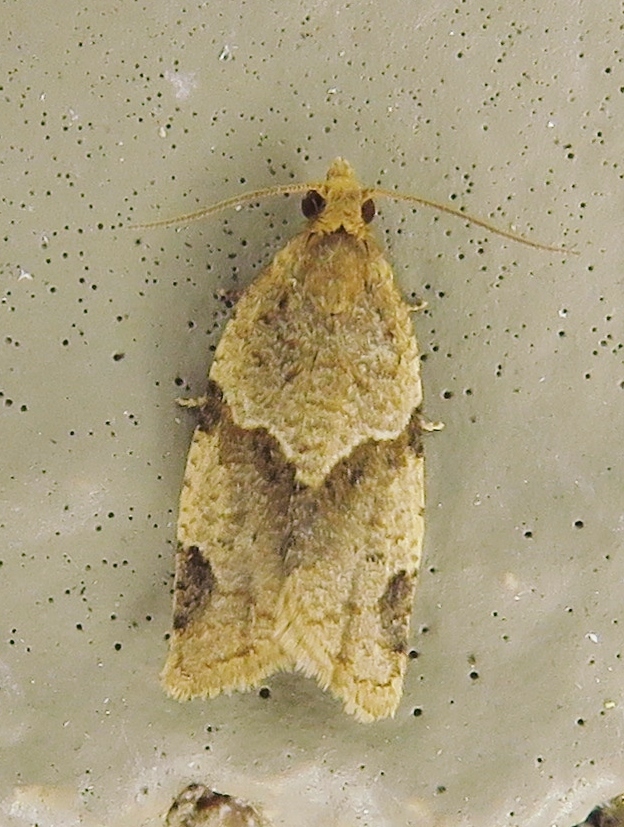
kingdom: Animalia
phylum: Arthropoda
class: Insecta
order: Lepidoptera
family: Tortricidae
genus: Clepsis
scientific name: Clepsis peritana
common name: Garden tortrix
